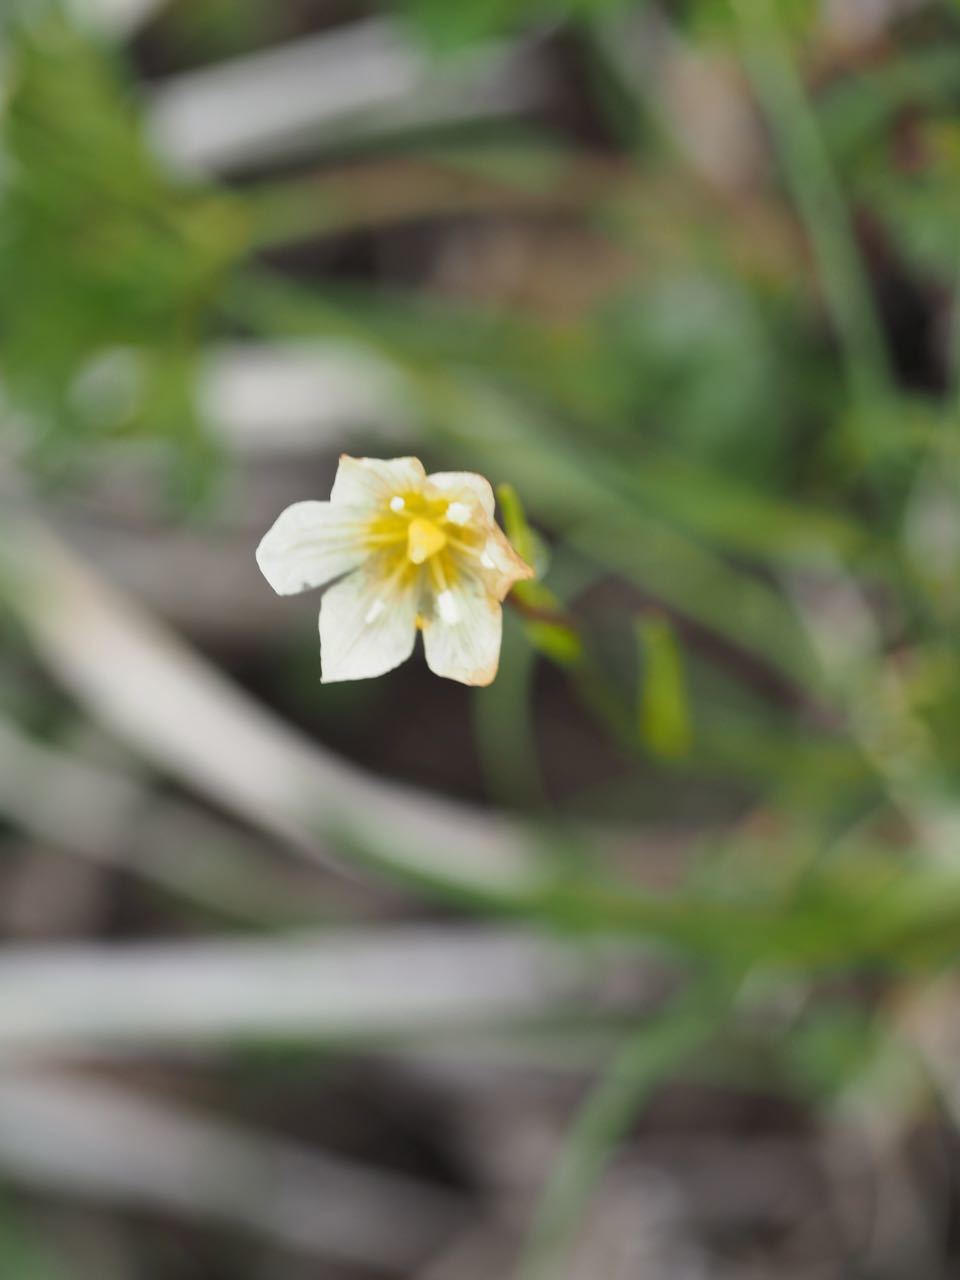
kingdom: Plantae
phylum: Tracheophyta
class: Liliopsida
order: Liliales
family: Liliaceae
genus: Gagea
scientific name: Gagea serotina
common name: Snowdon lily
